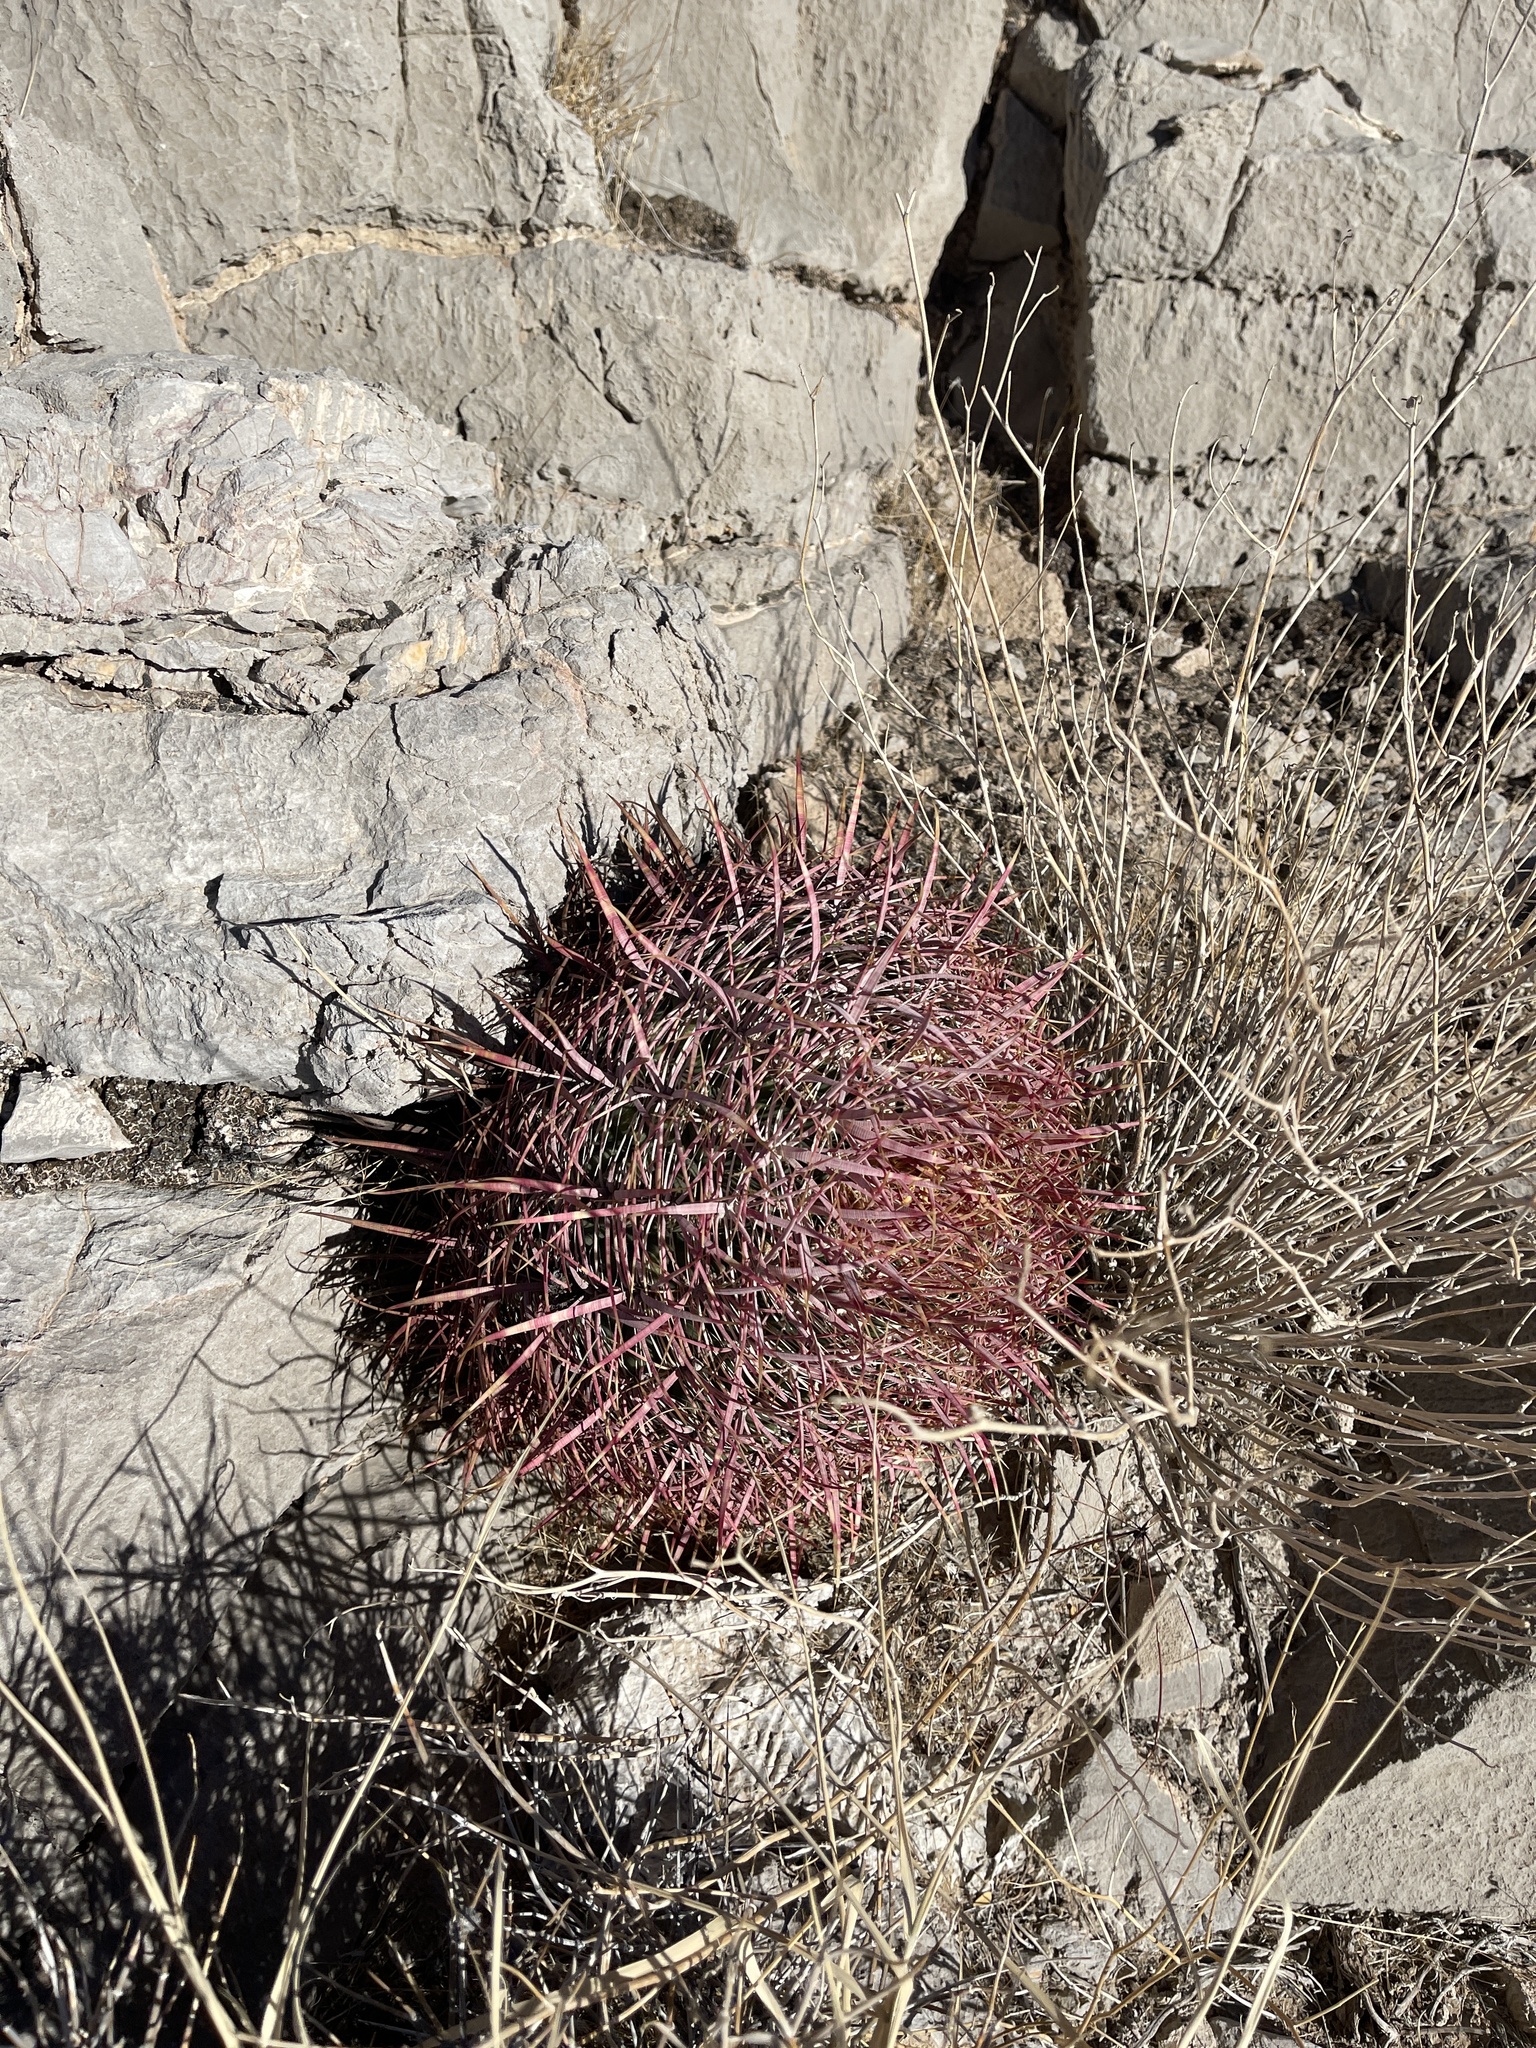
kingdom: Plantae
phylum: Tracheophyta
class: Magnoliopsida
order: Caryophyllales
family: Cactaceae
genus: Ferocactus
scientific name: Ferocactus cylindraceus
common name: California barrel cactus
